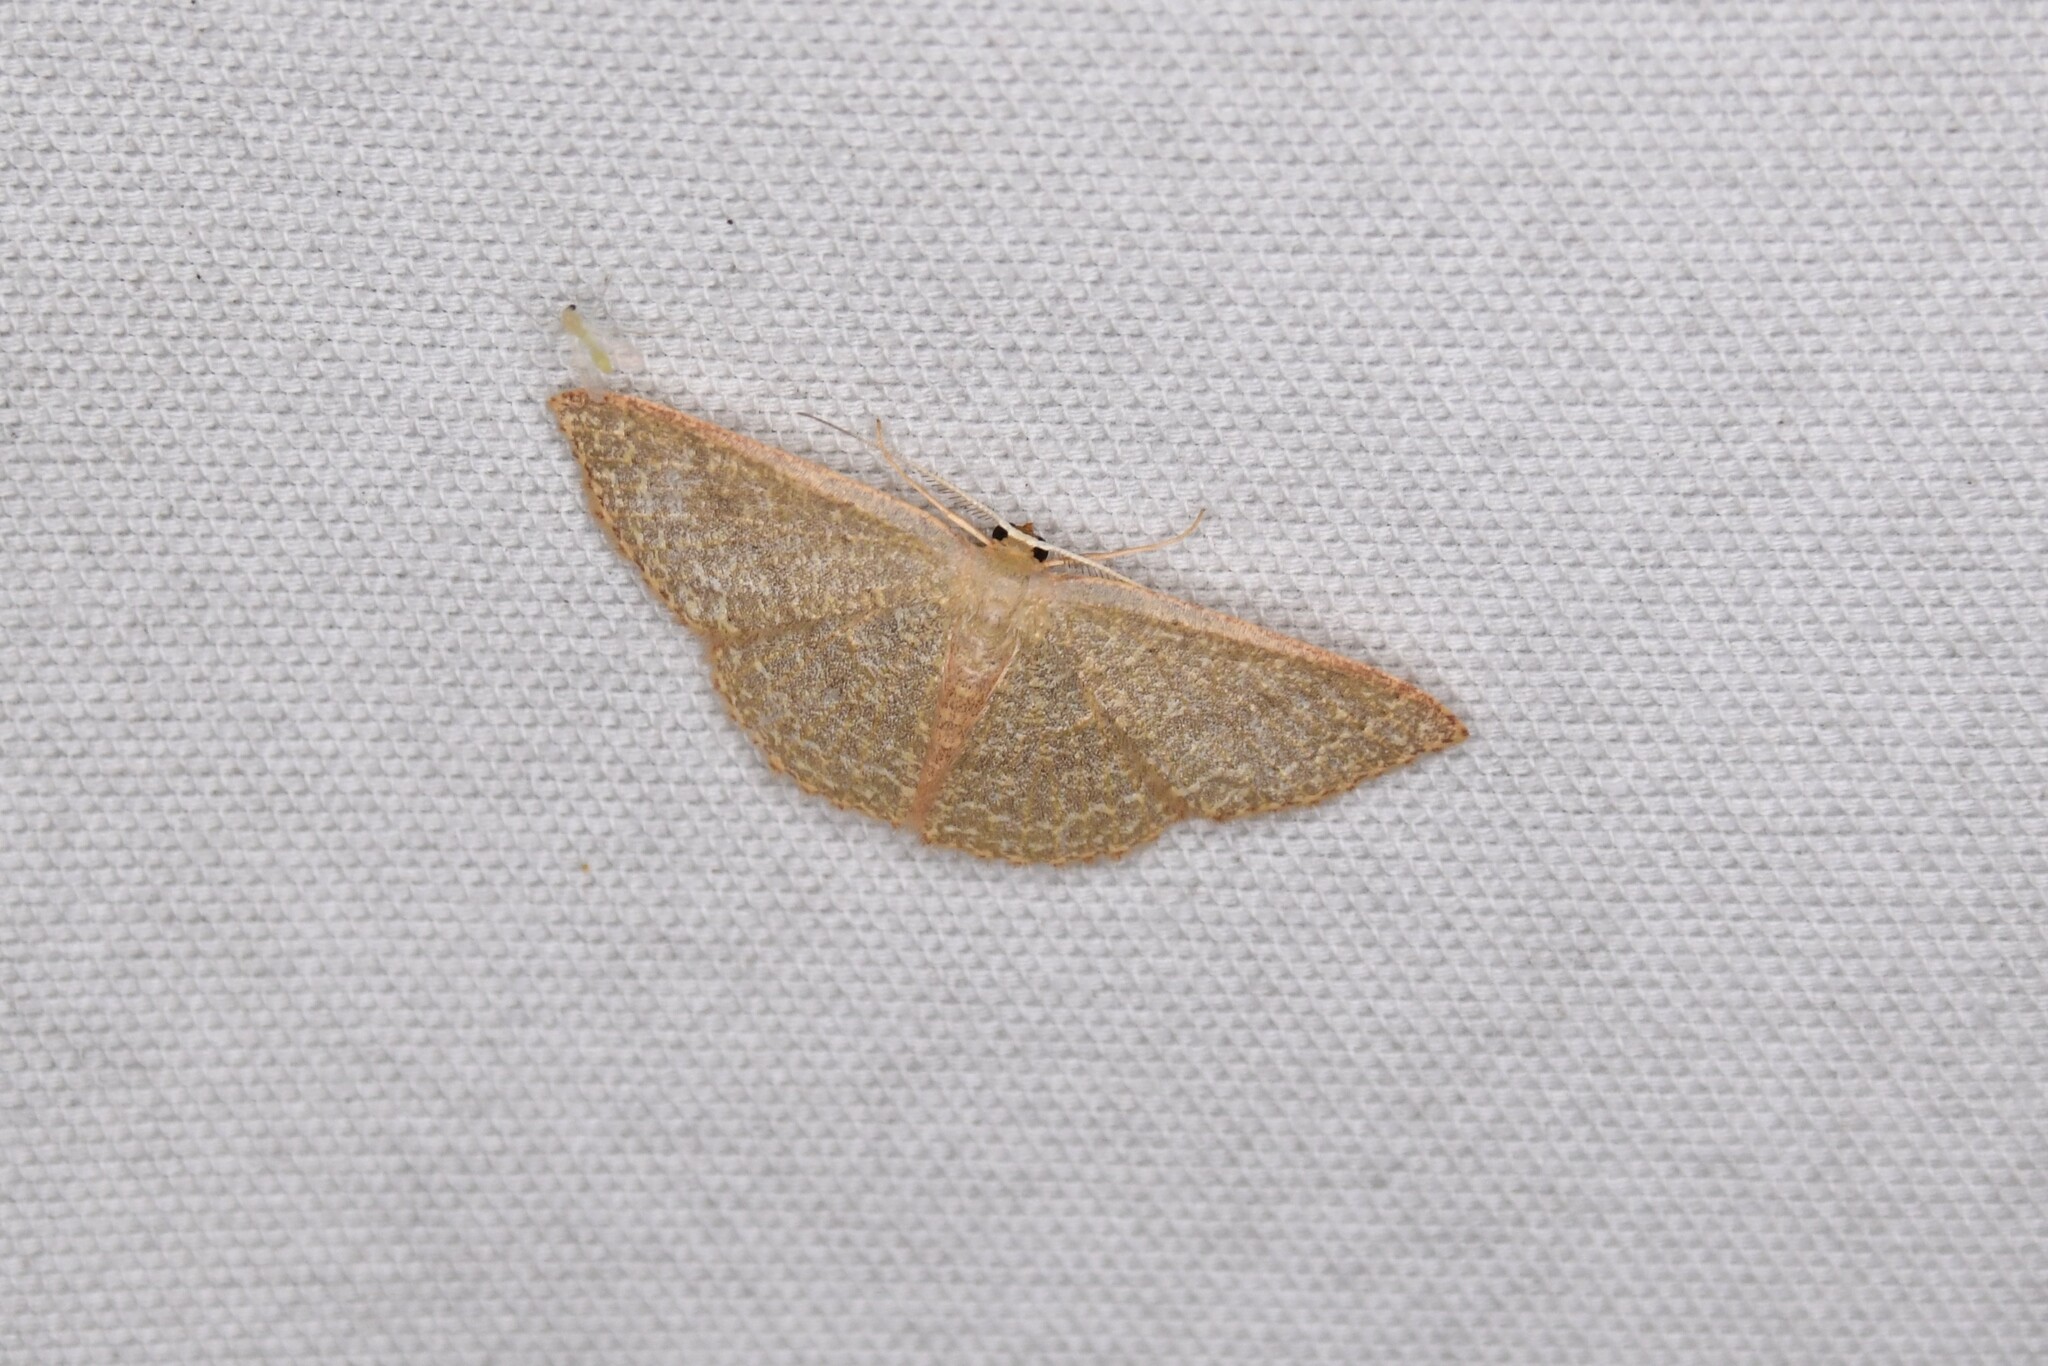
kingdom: Animalia
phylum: Arthropoda
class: Insecta
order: Lepidoptera
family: Geometridae
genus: Pleuroprucha
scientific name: Pleuroprucha insulsaria
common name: Common tan wave
